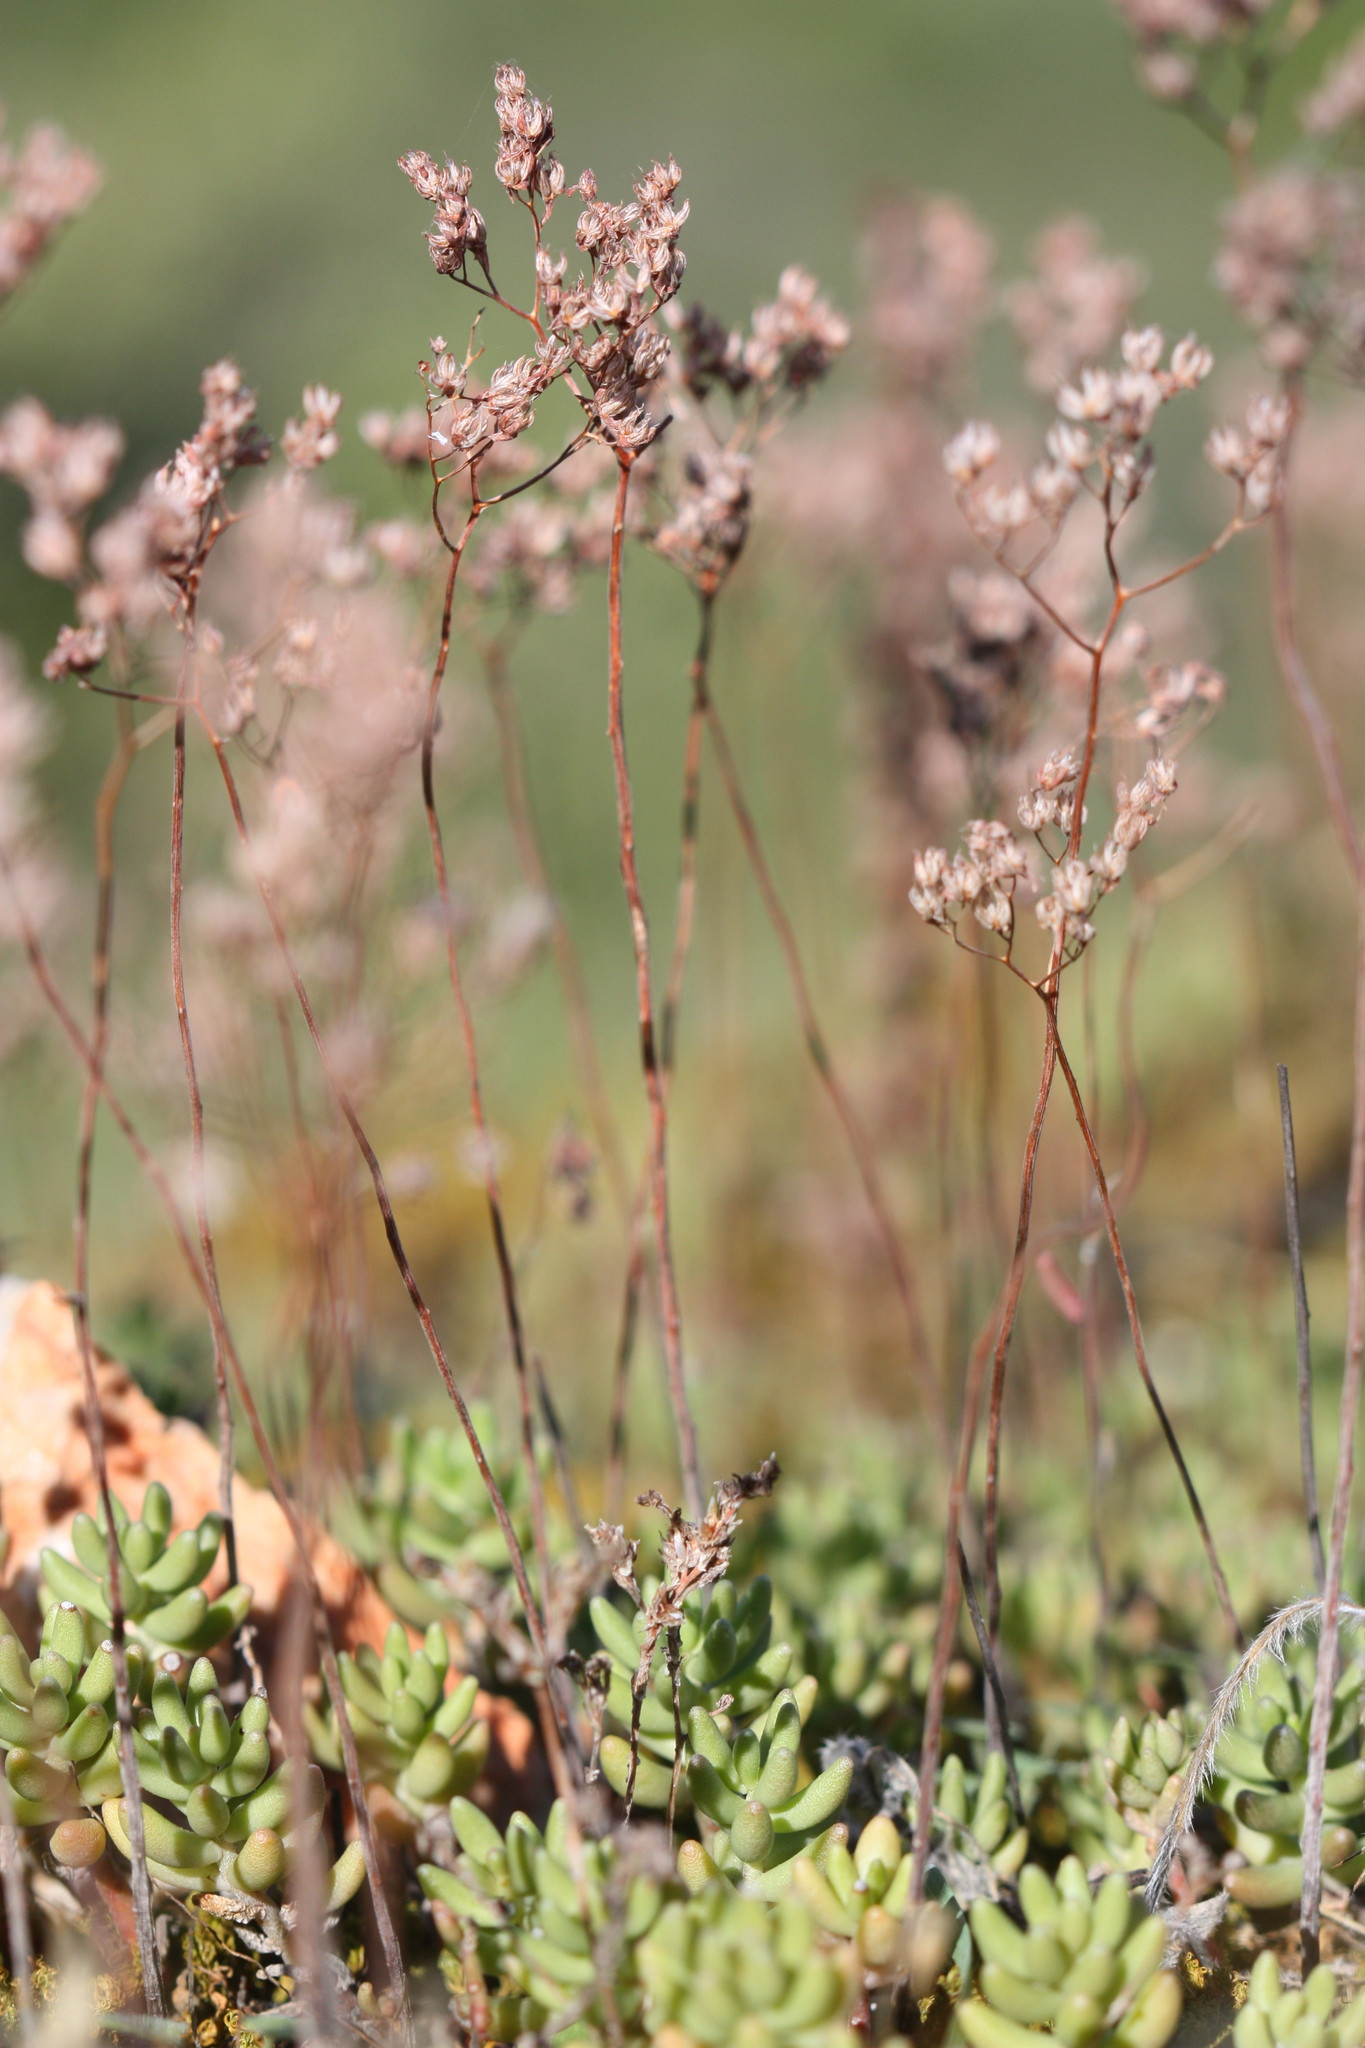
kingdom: Plantae
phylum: Tracheophyta
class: Magnoliopsida
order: Saxifragales
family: Crassulaceae
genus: Sedum
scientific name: Sedum album
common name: White stonecrop
